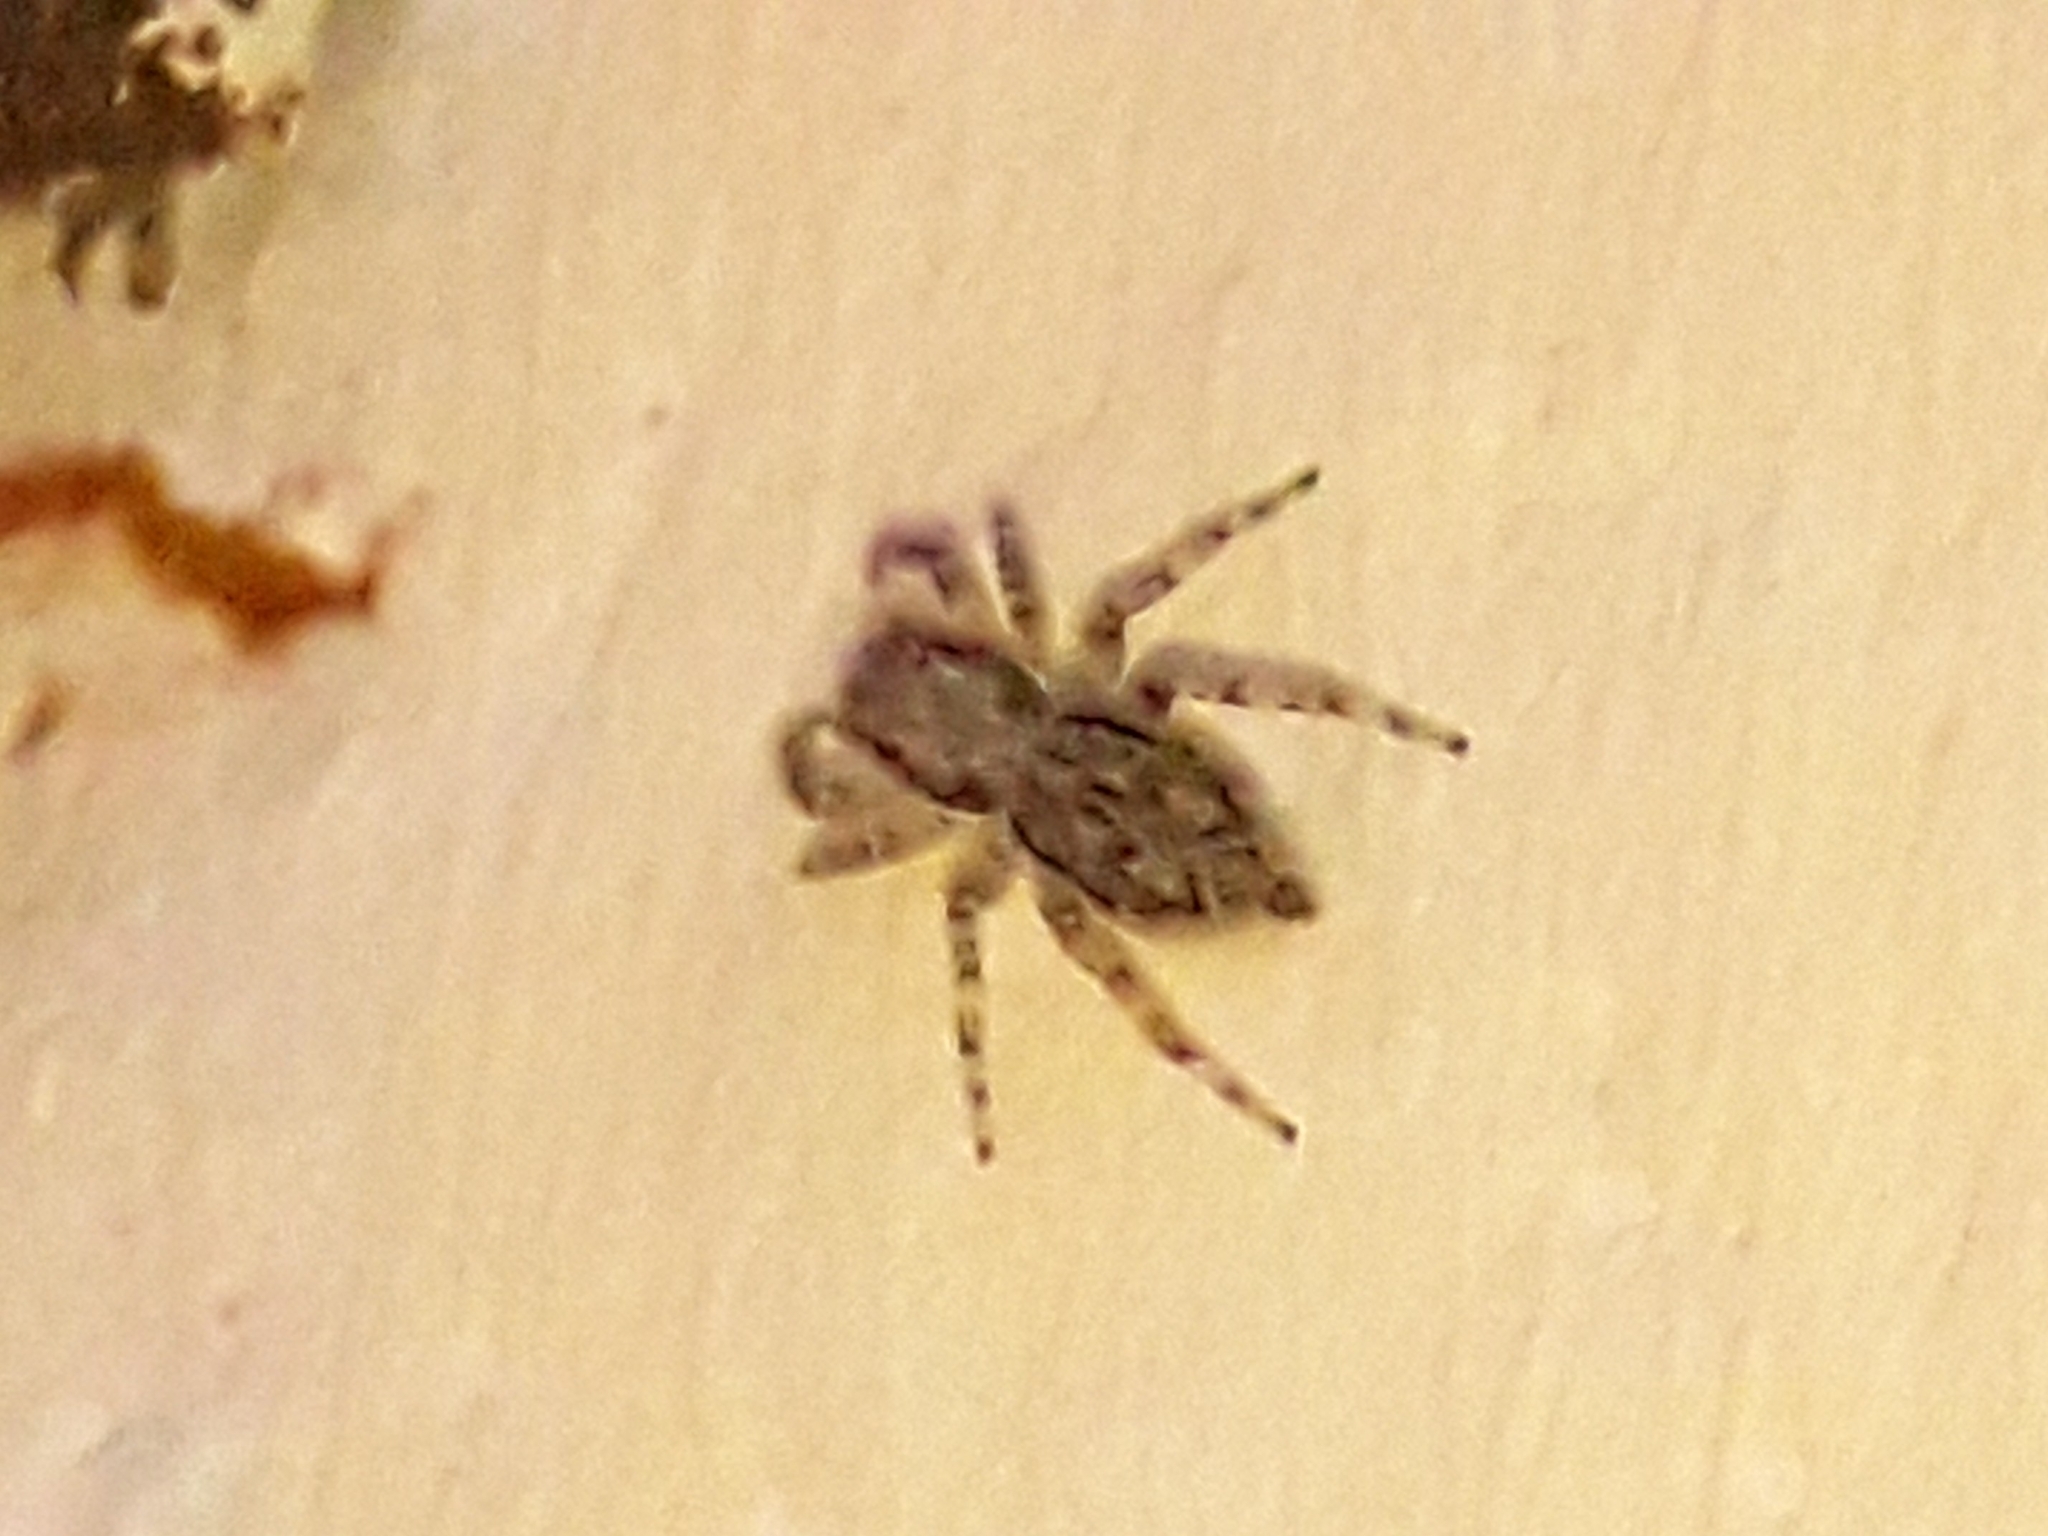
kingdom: Animalia
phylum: Arthropoda
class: Arachnida
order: Araneae
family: Salticidae
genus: Menemerus
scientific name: Menemerus bivittatus
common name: Gray wall jumper
